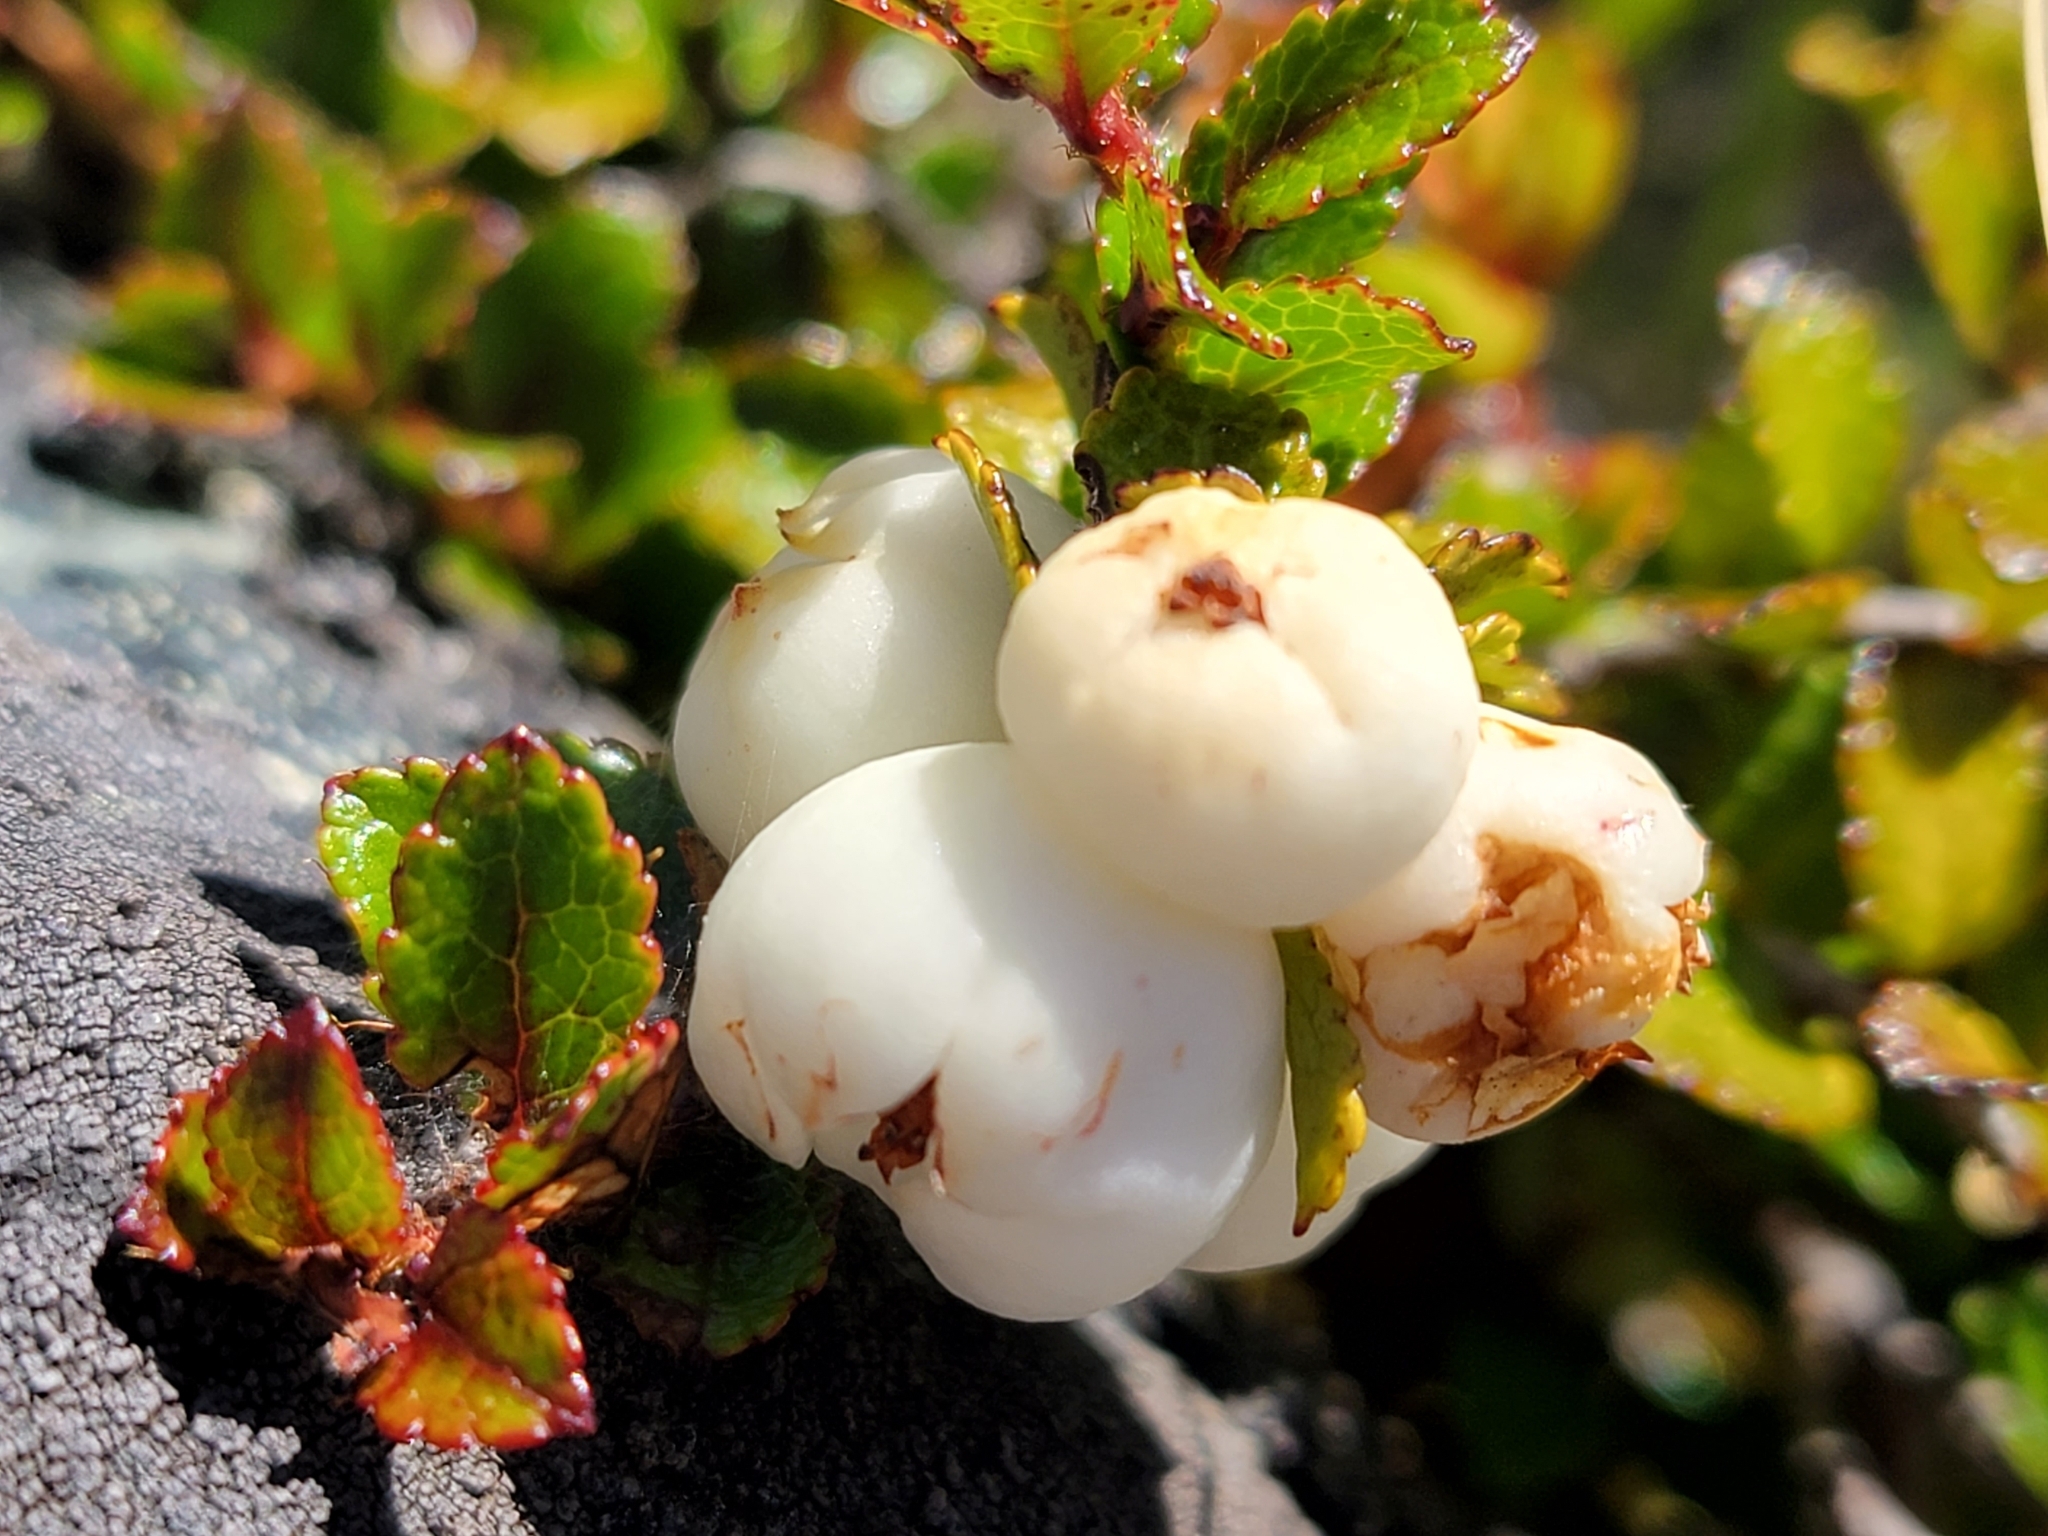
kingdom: Plantae
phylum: Tracheophyta
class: Magnoliopsida
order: Ericales
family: Ericaceae
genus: Gaultheria
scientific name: Gaultheria depressa
